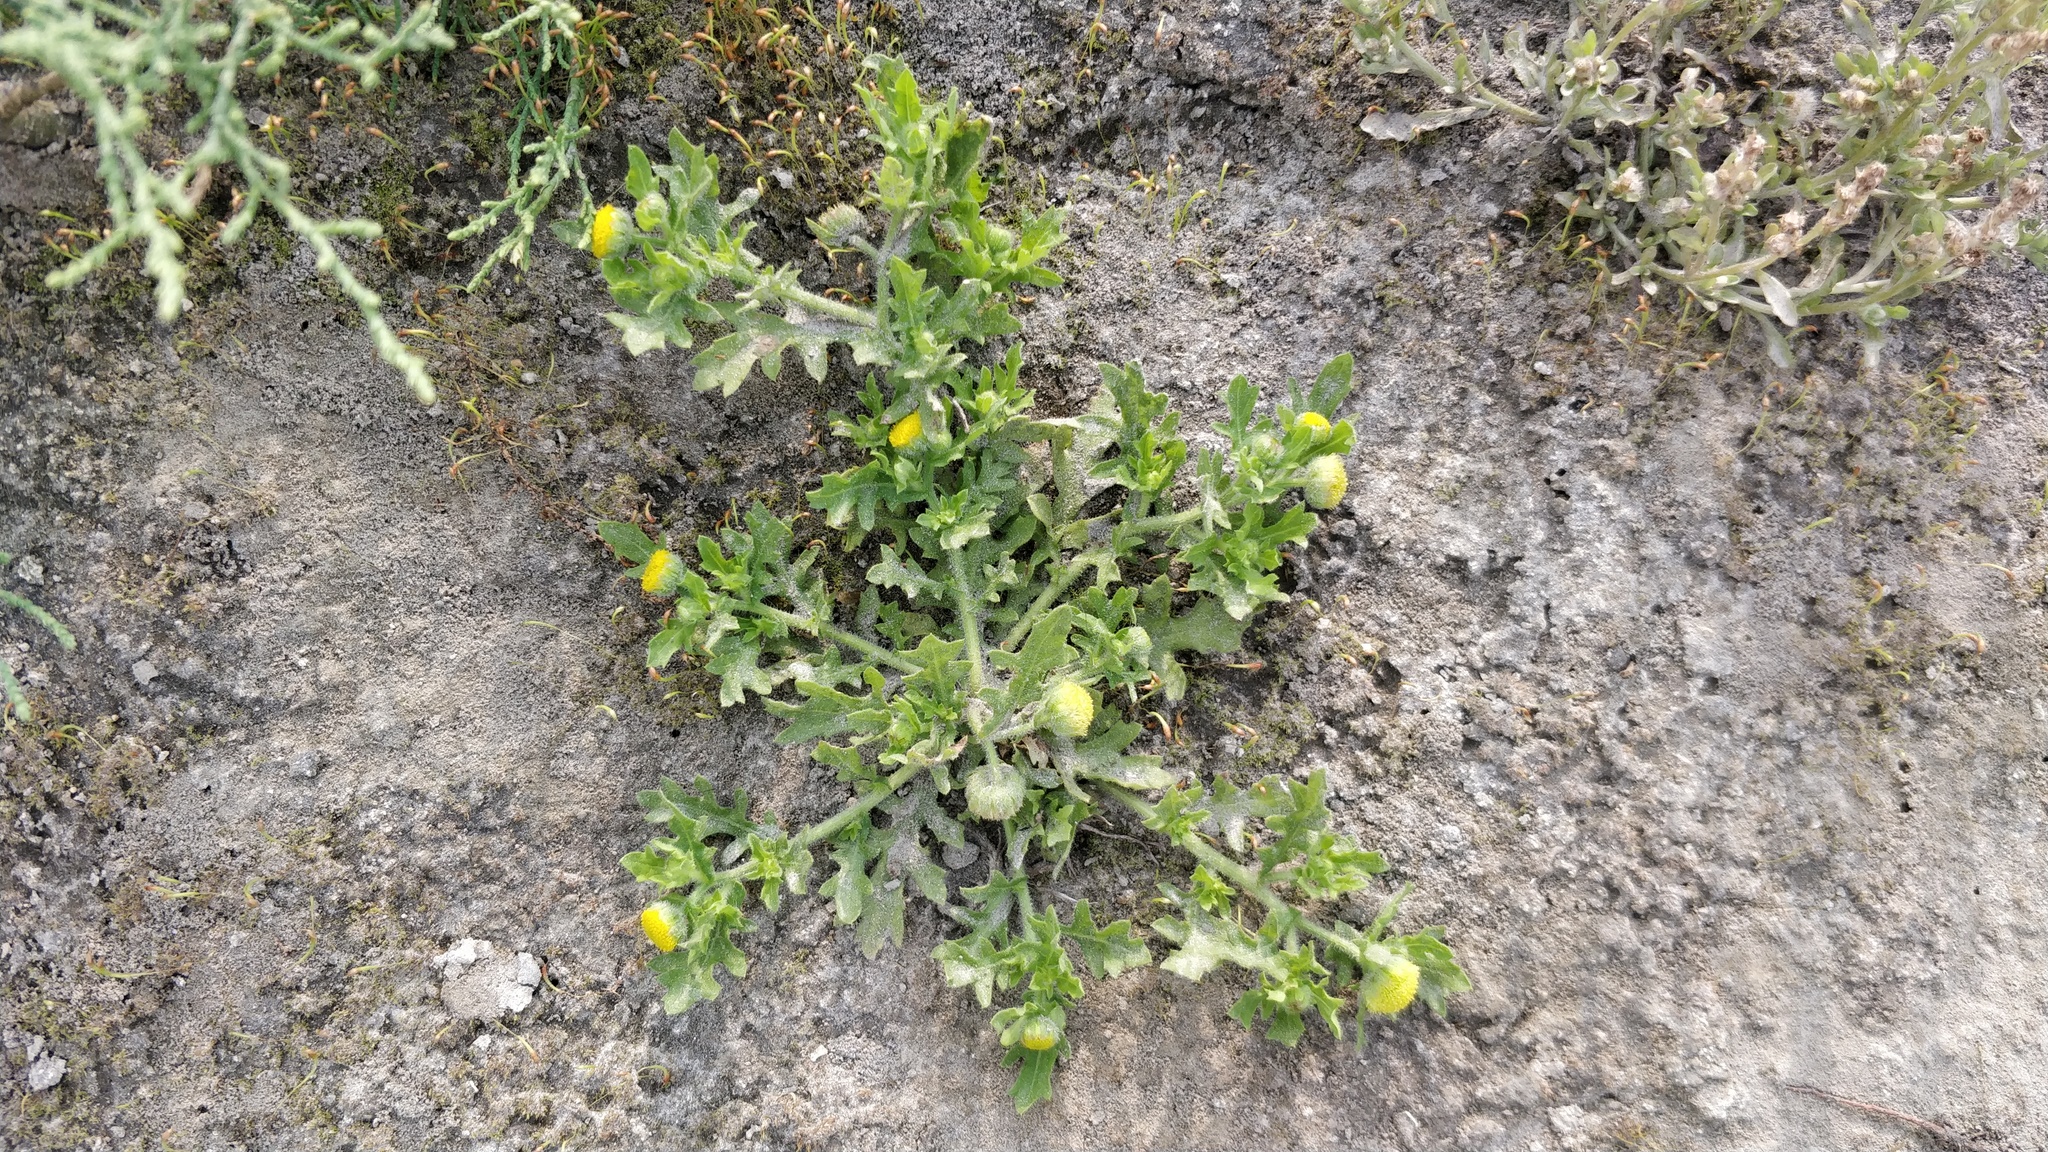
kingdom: Plantae
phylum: Tracheophyta
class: Magnoliopsida
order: Asterales
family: Asteraceae
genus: Grangea
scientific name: Grangea maderaspatana
